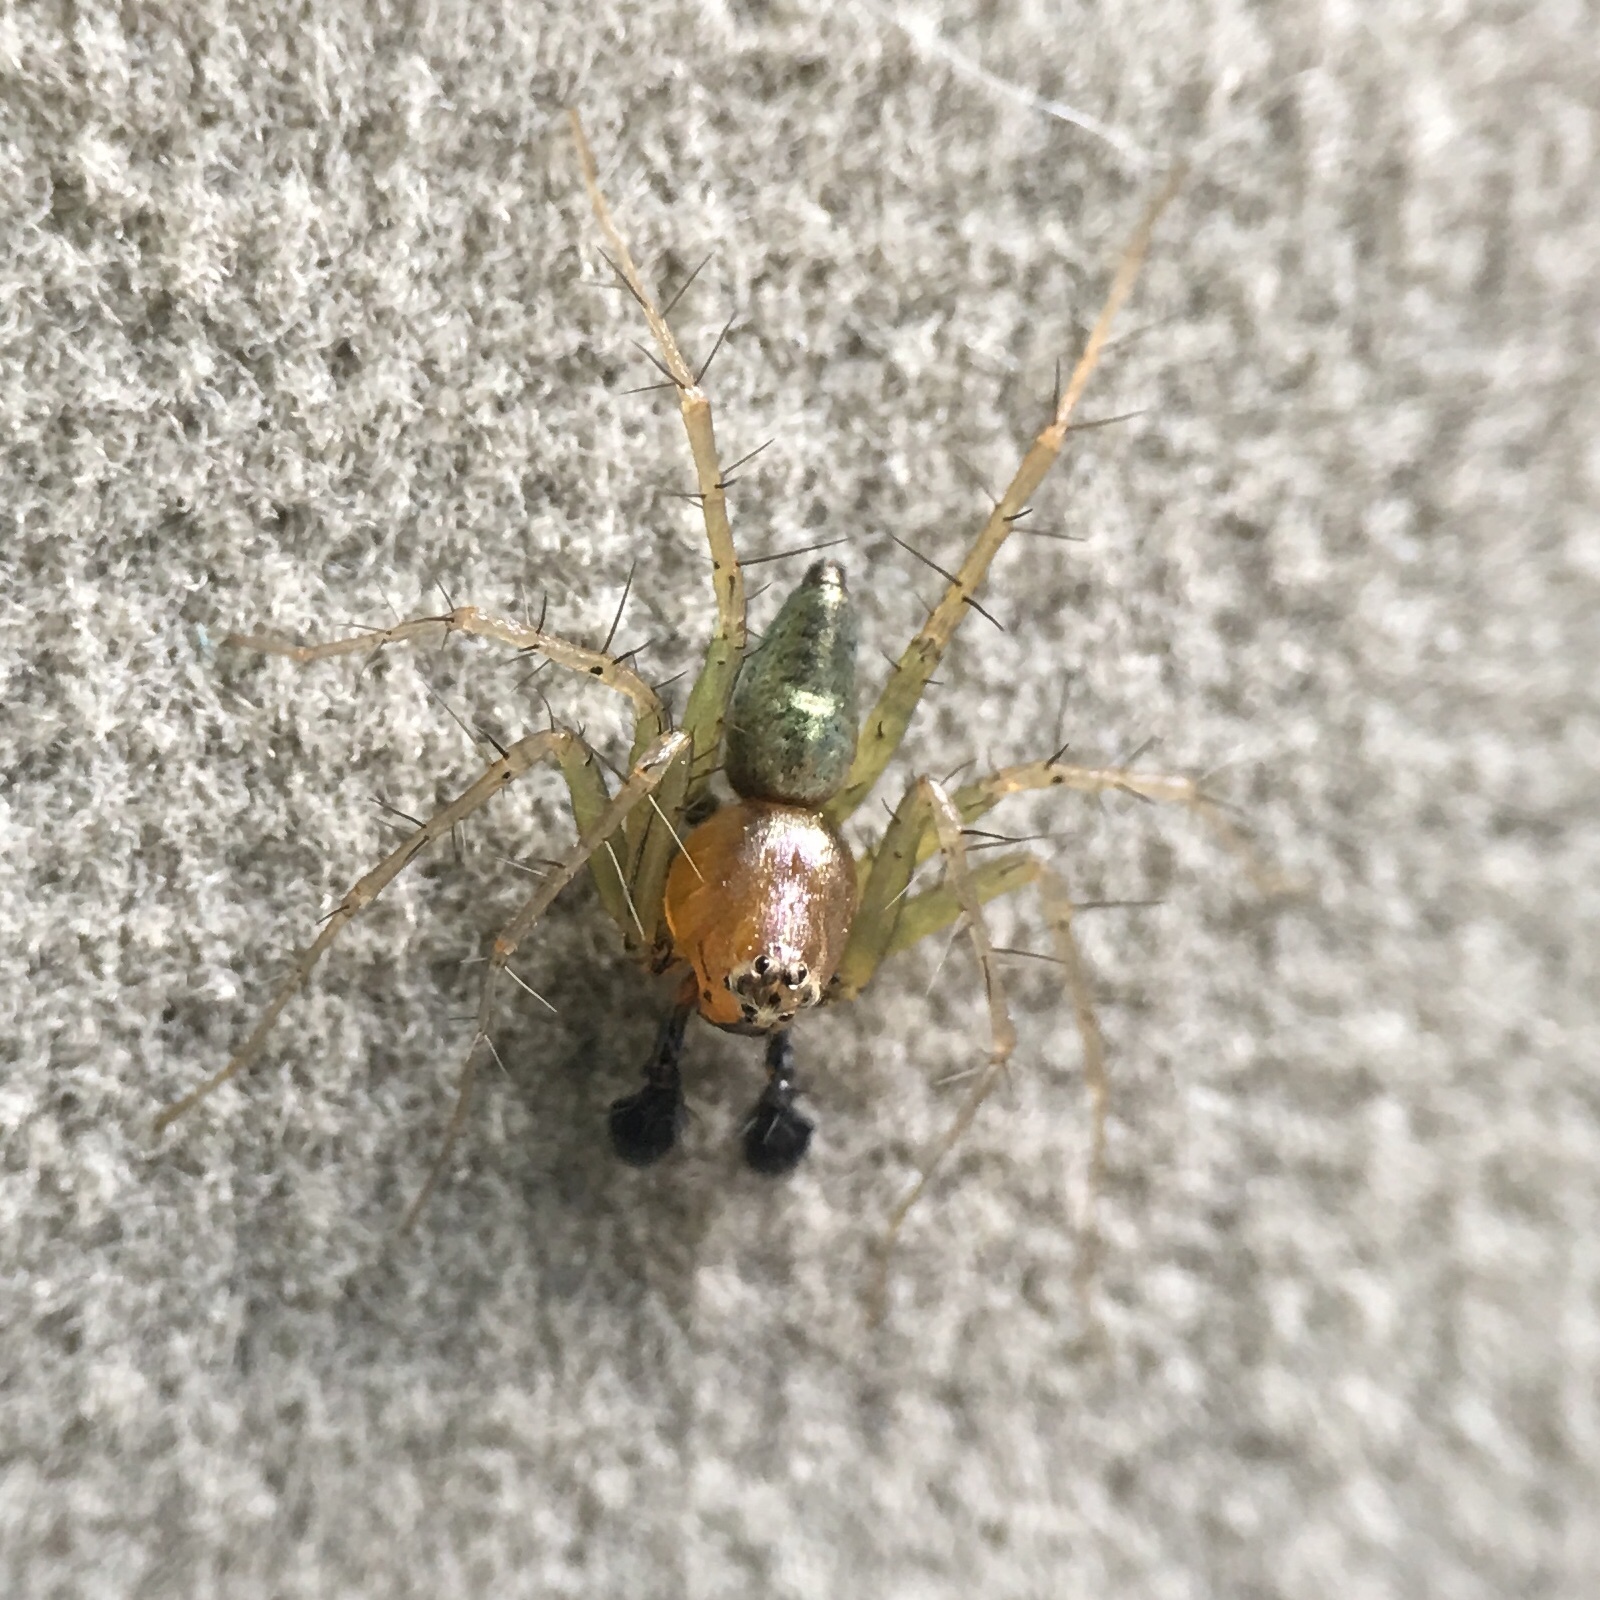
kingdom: Animalia
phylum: Arthropoda
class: Arachnida
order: Araneae
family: Oxyopidae
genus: Oxyopes
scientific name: Oxyopes salticus
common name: Lynx spiders
